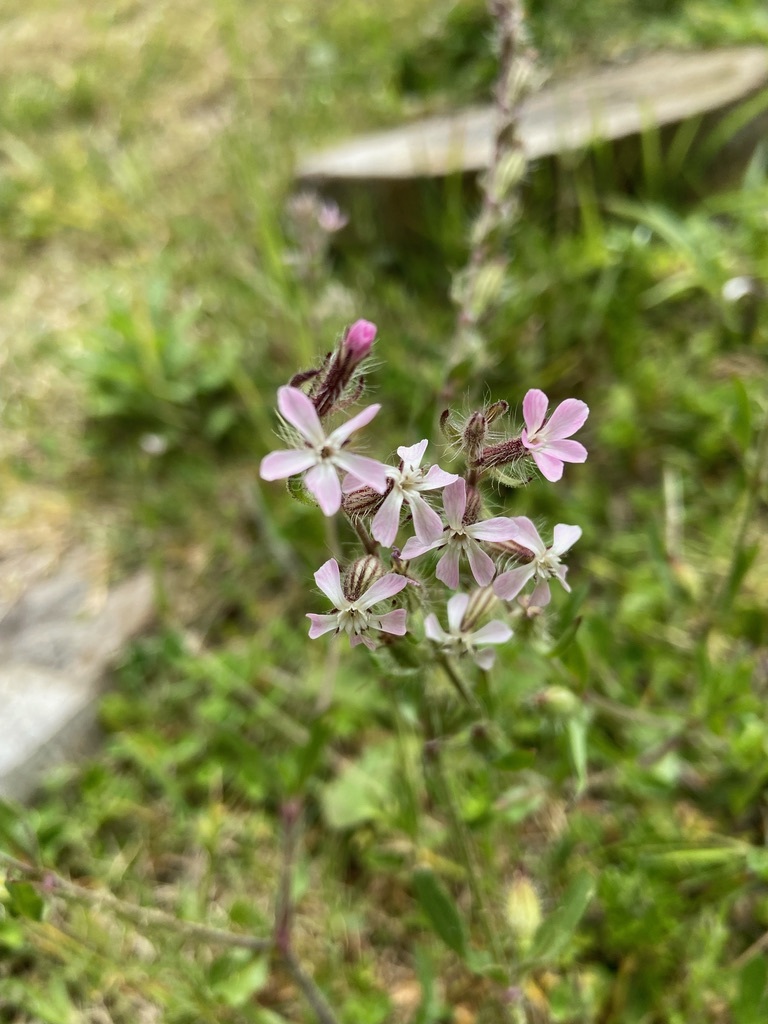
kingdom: Plantae
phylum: Tracheophyta
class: Magnoliopsida
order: Caryophyllales
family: Caryophyllaceae
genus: Silene
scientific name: Silene gallica
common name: Small-flowered catchfly
